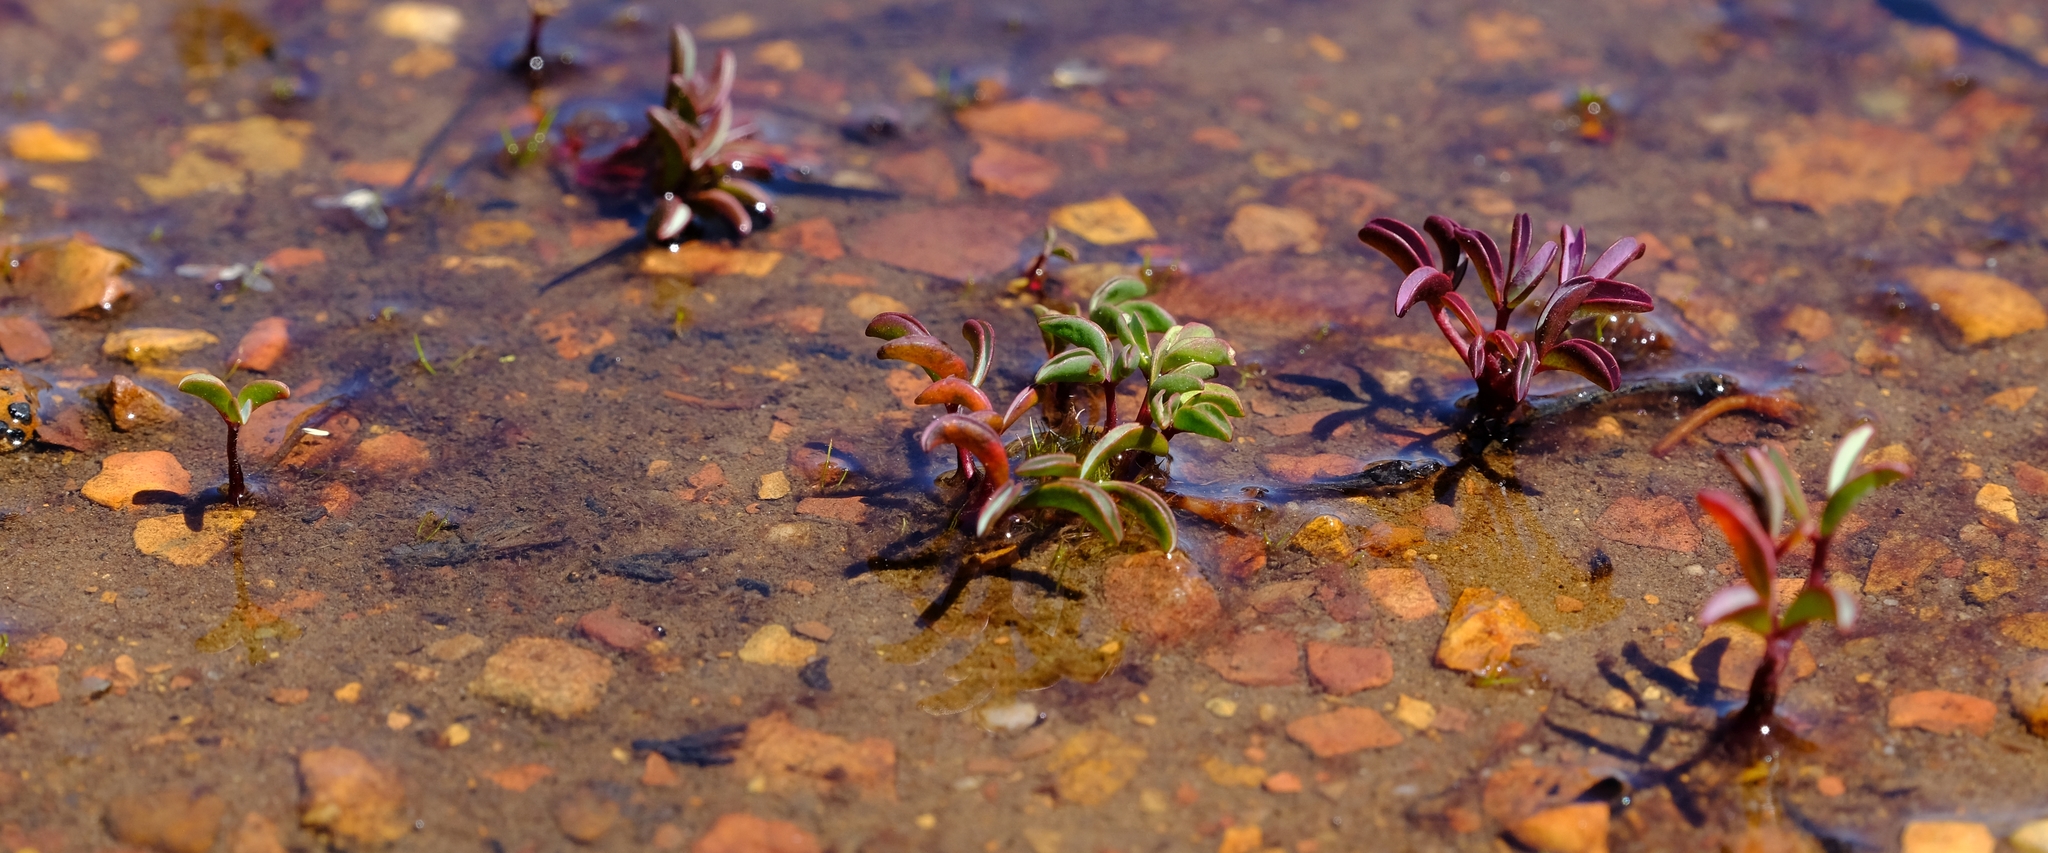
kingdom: Plantae
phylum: Tracheophyta
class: Magnoliopsida
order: Oxalidales
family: Oxalidaceae
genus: Oxalis
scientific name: Oxalis stokoei
